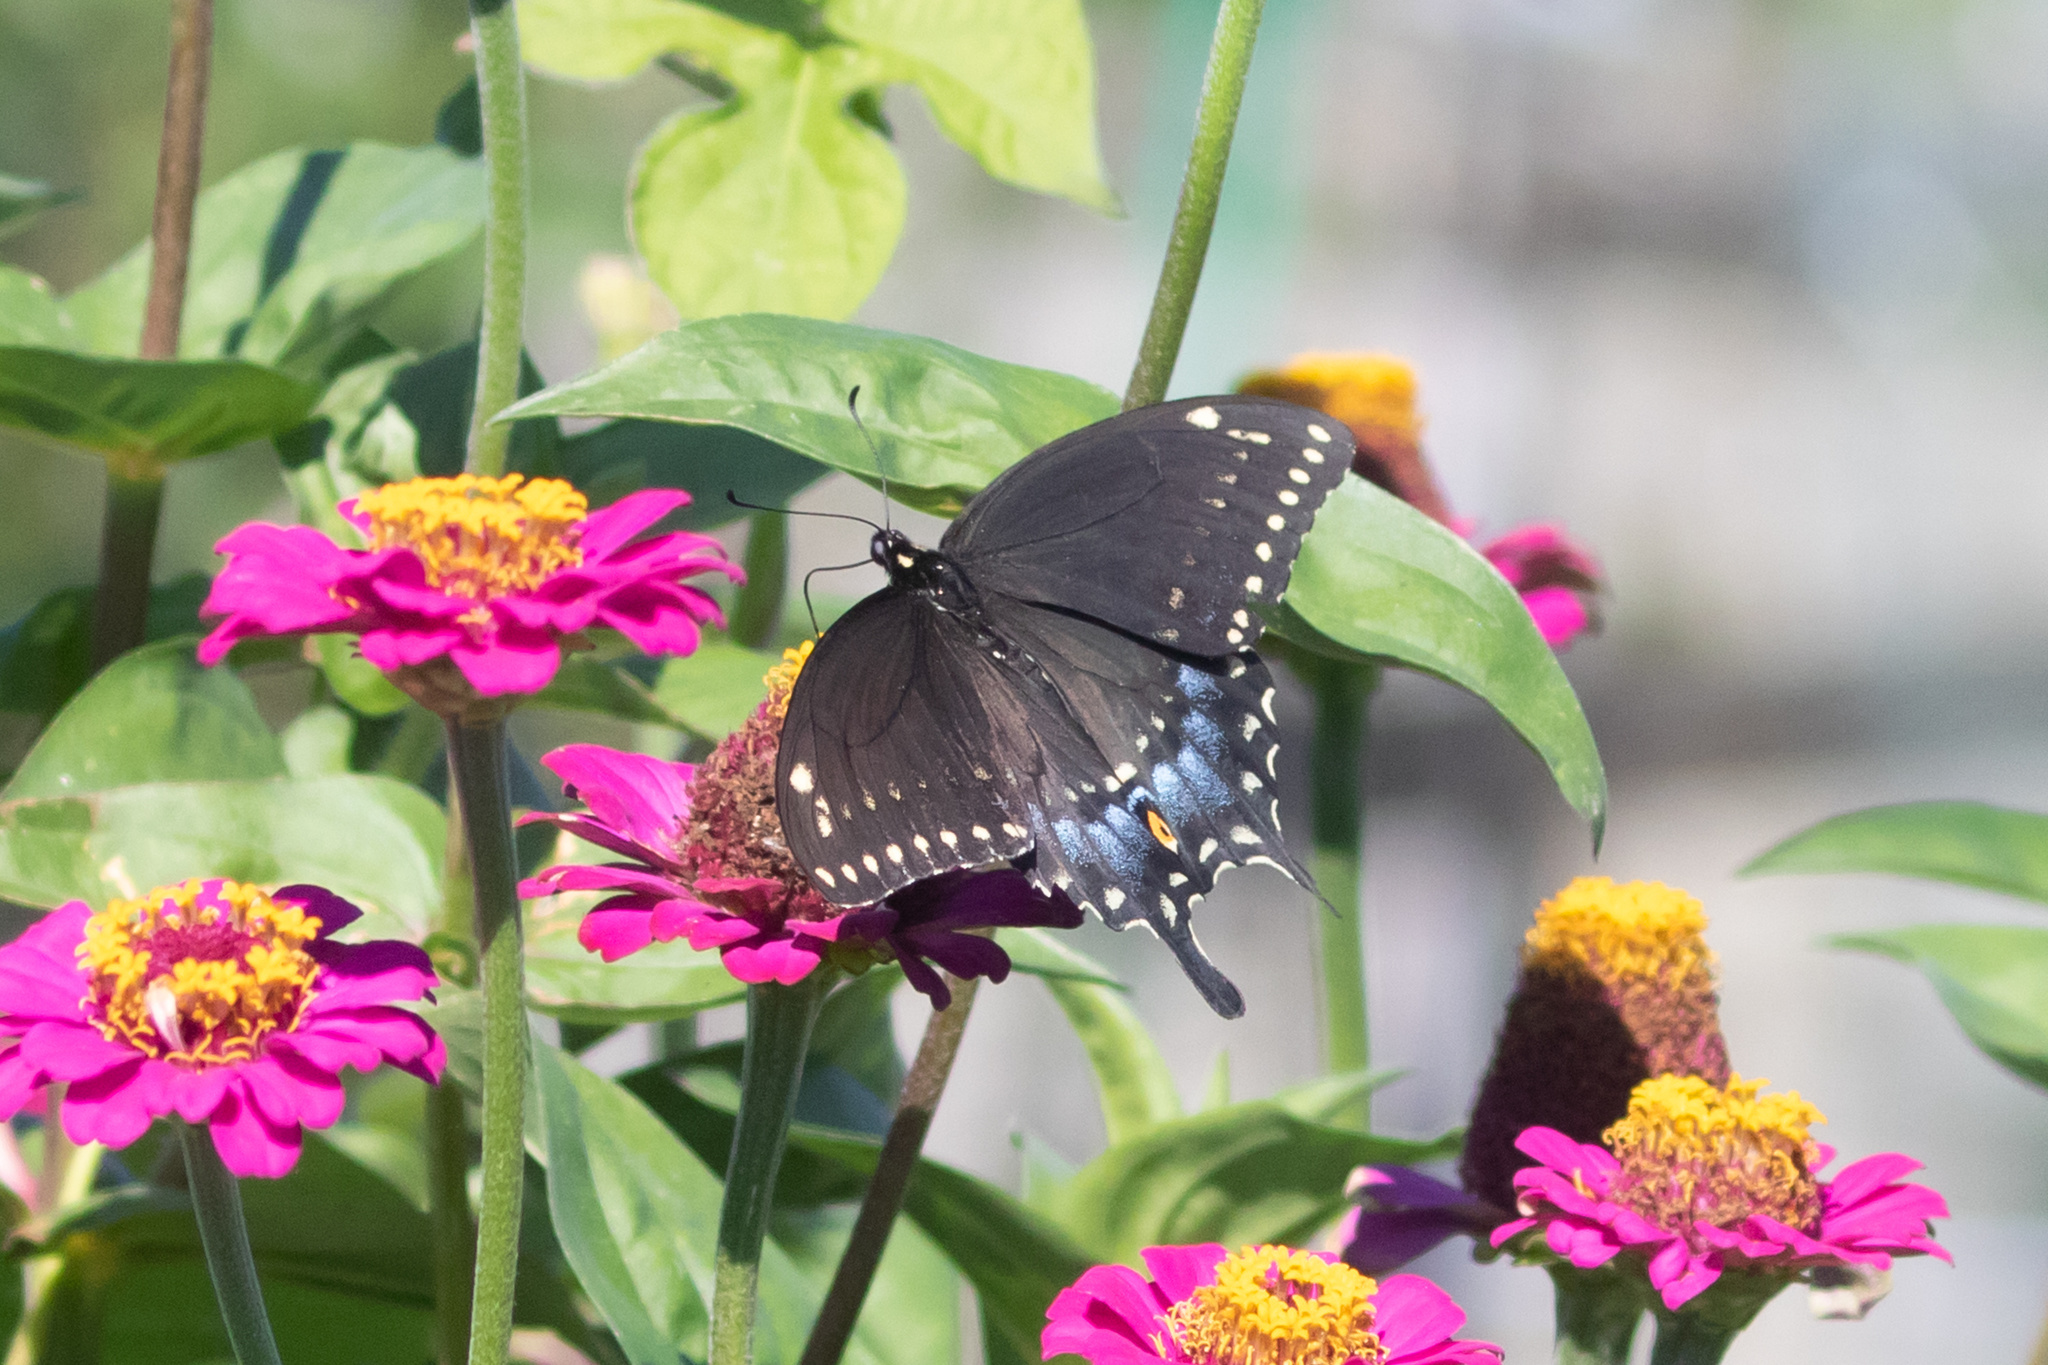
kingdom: Animalia
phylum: Arthropoda
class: Insecta
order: Lepidoptera
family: Papilionidae
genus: Papilio
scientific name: Papilio polyxenes
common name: Black swallowtail
